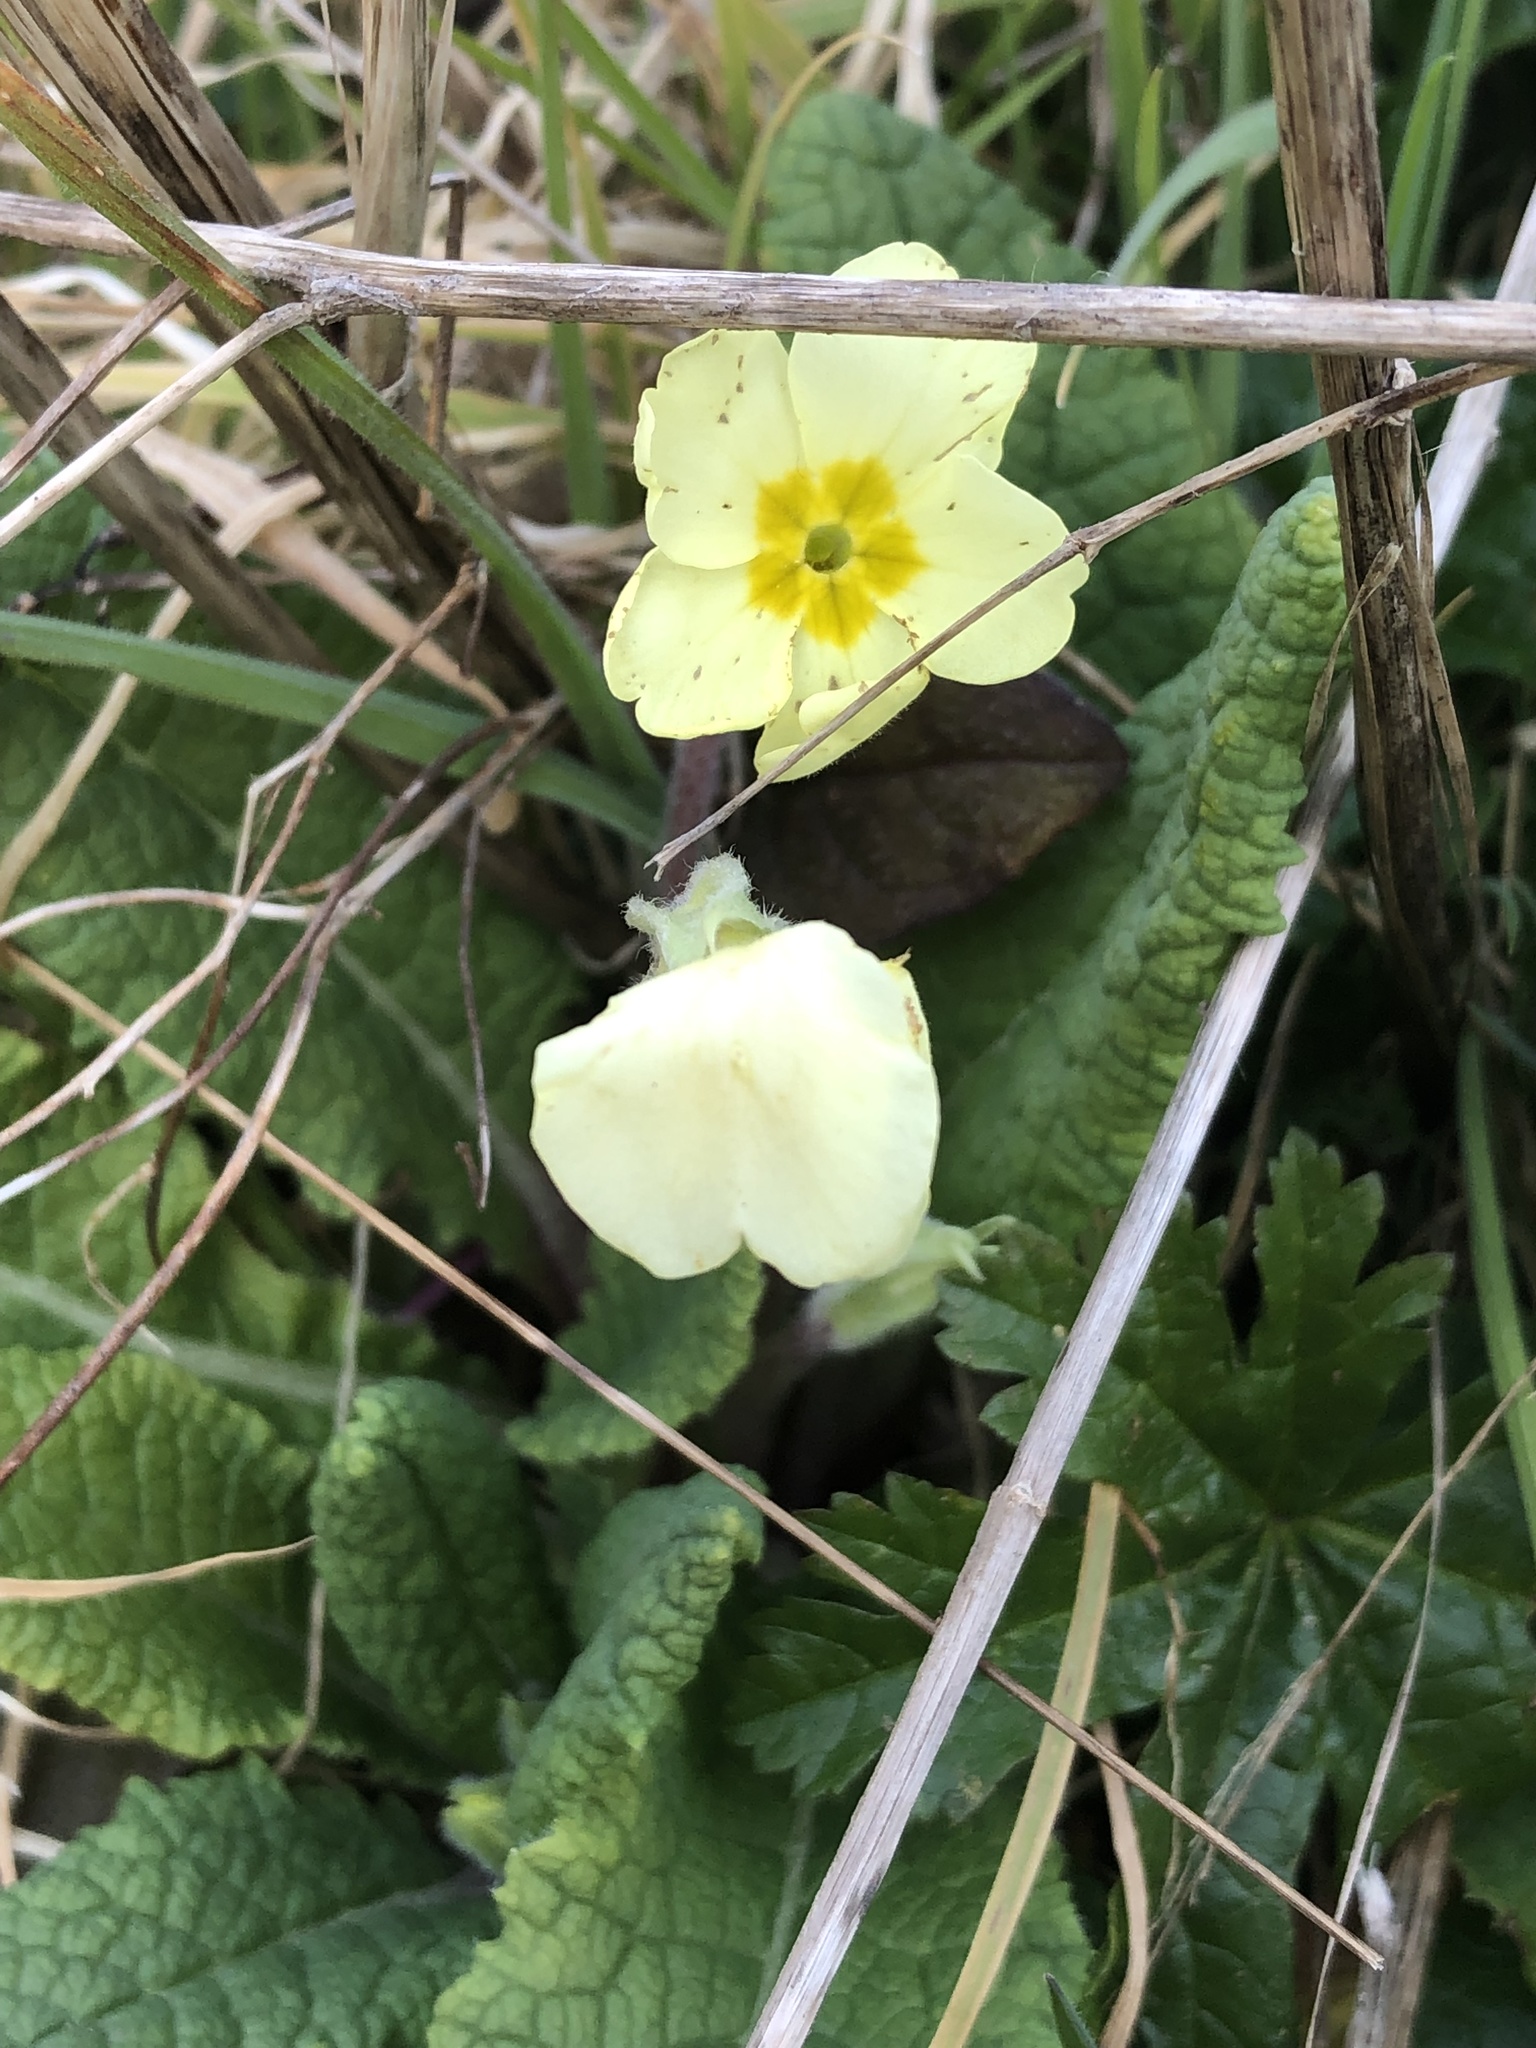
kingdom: Plantae
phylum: Tracheophyta
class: Magnoliopsida
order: Ericales
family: Primulaceae
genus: Primula
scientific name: Primula vulgaris
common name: Primrose
